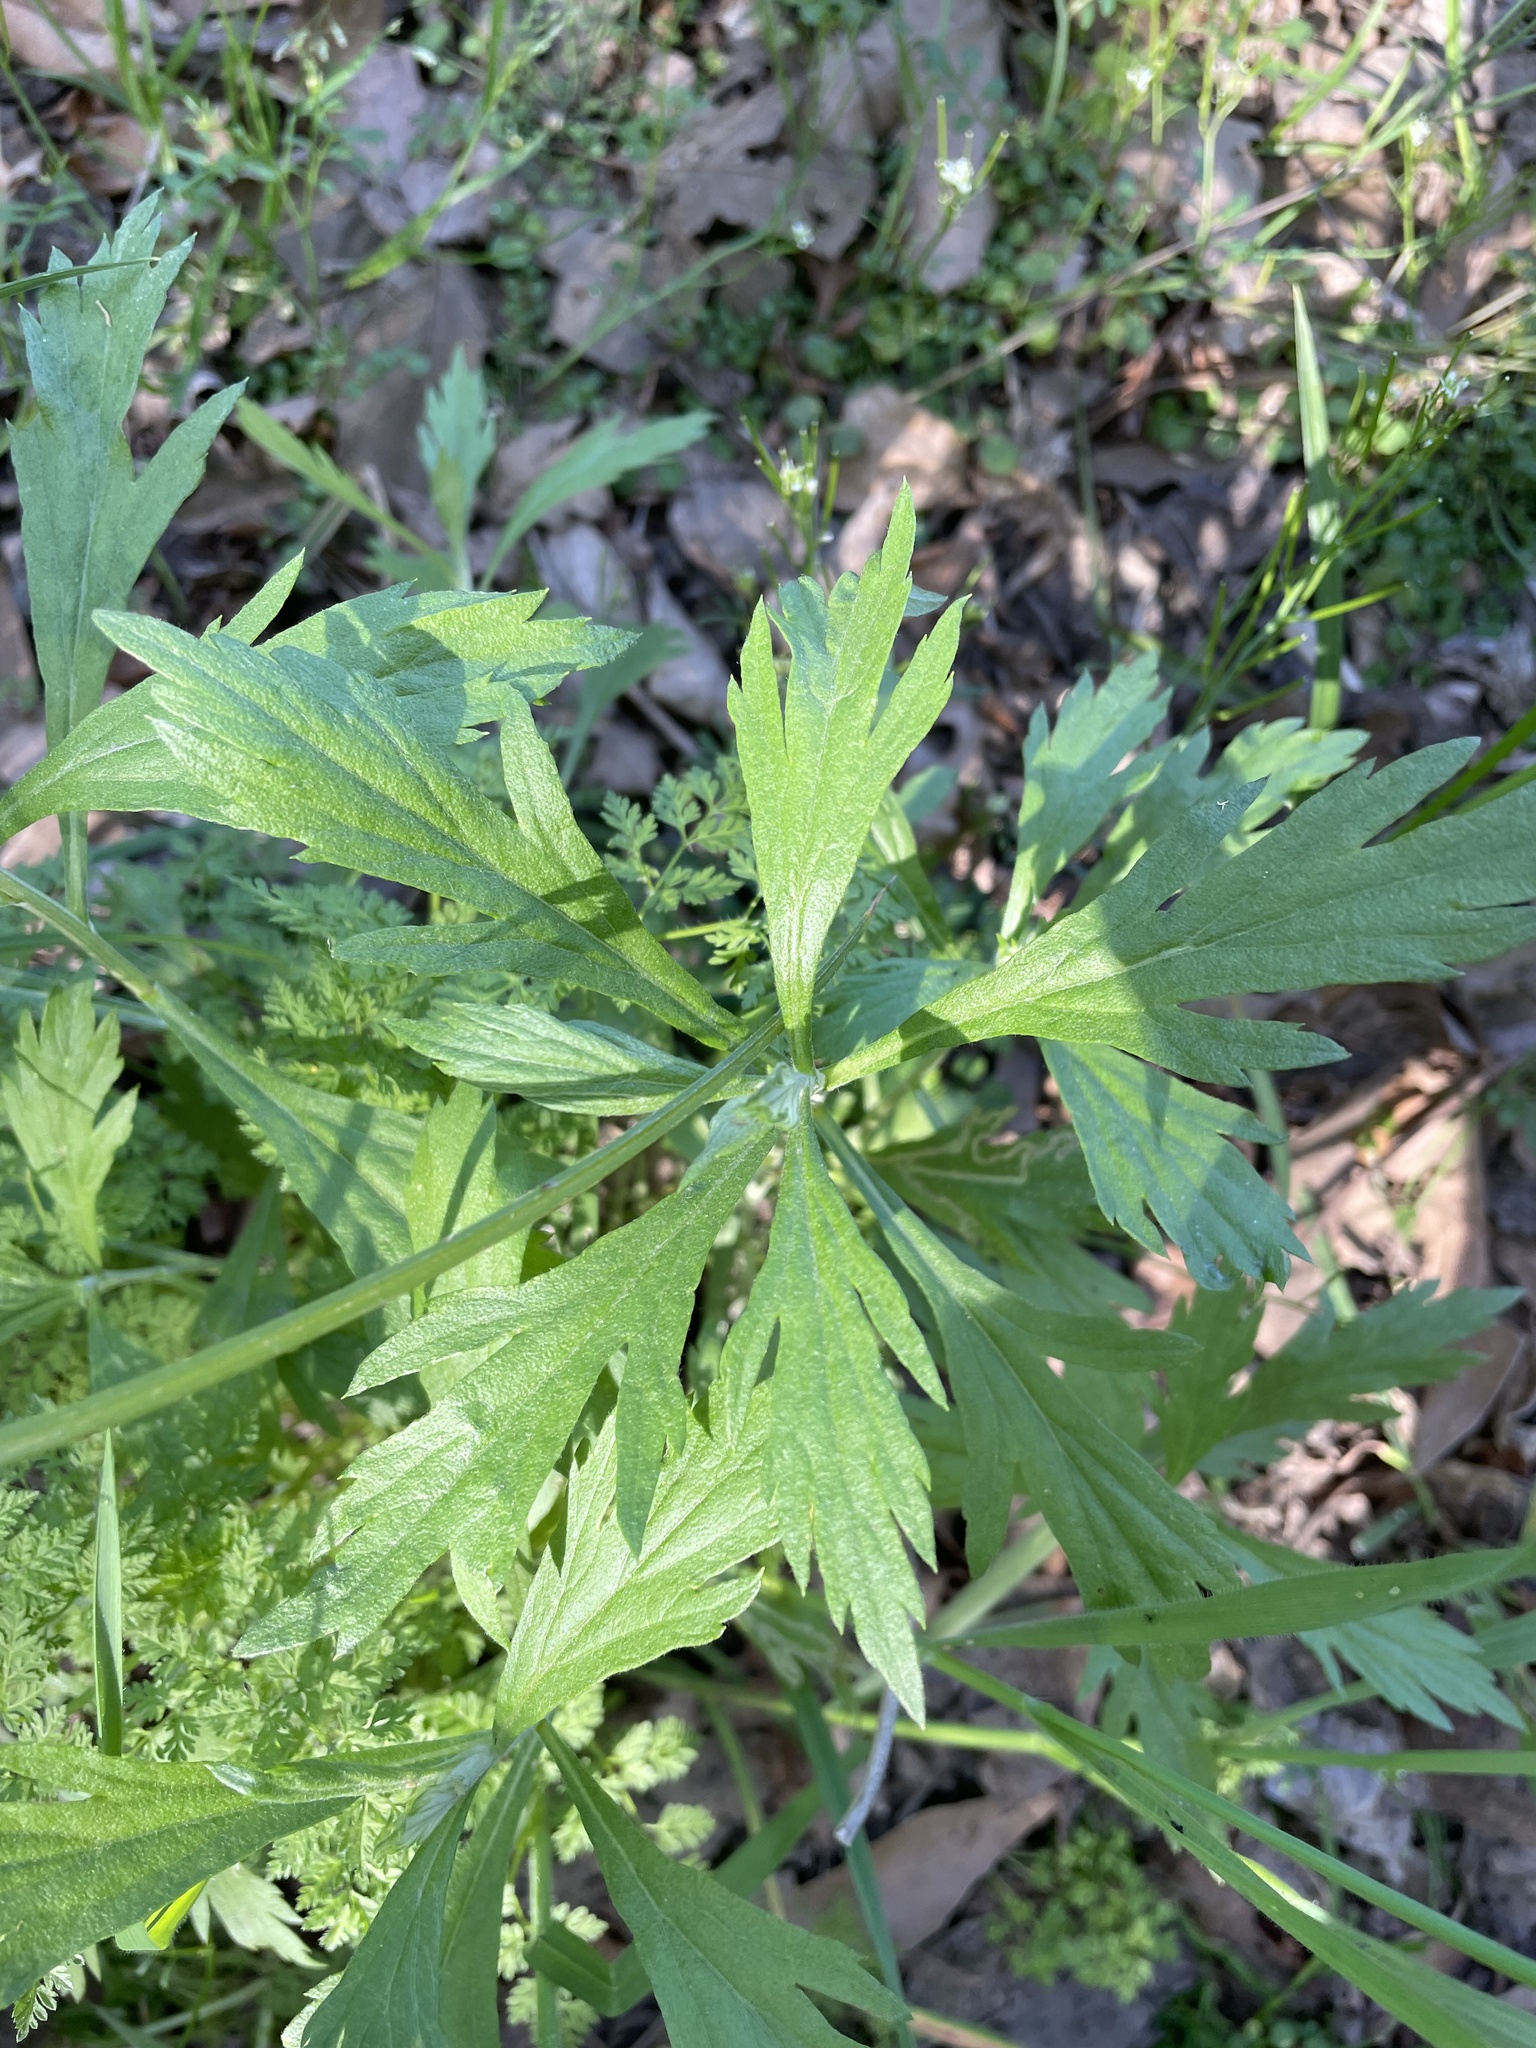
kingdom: Plantae
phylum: Tracheophyta
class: Magnoliopsida
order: Asterales
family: Asteraceae
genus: Artemisia
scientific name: Artemisia douglasiana
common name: Northwest mugwort
